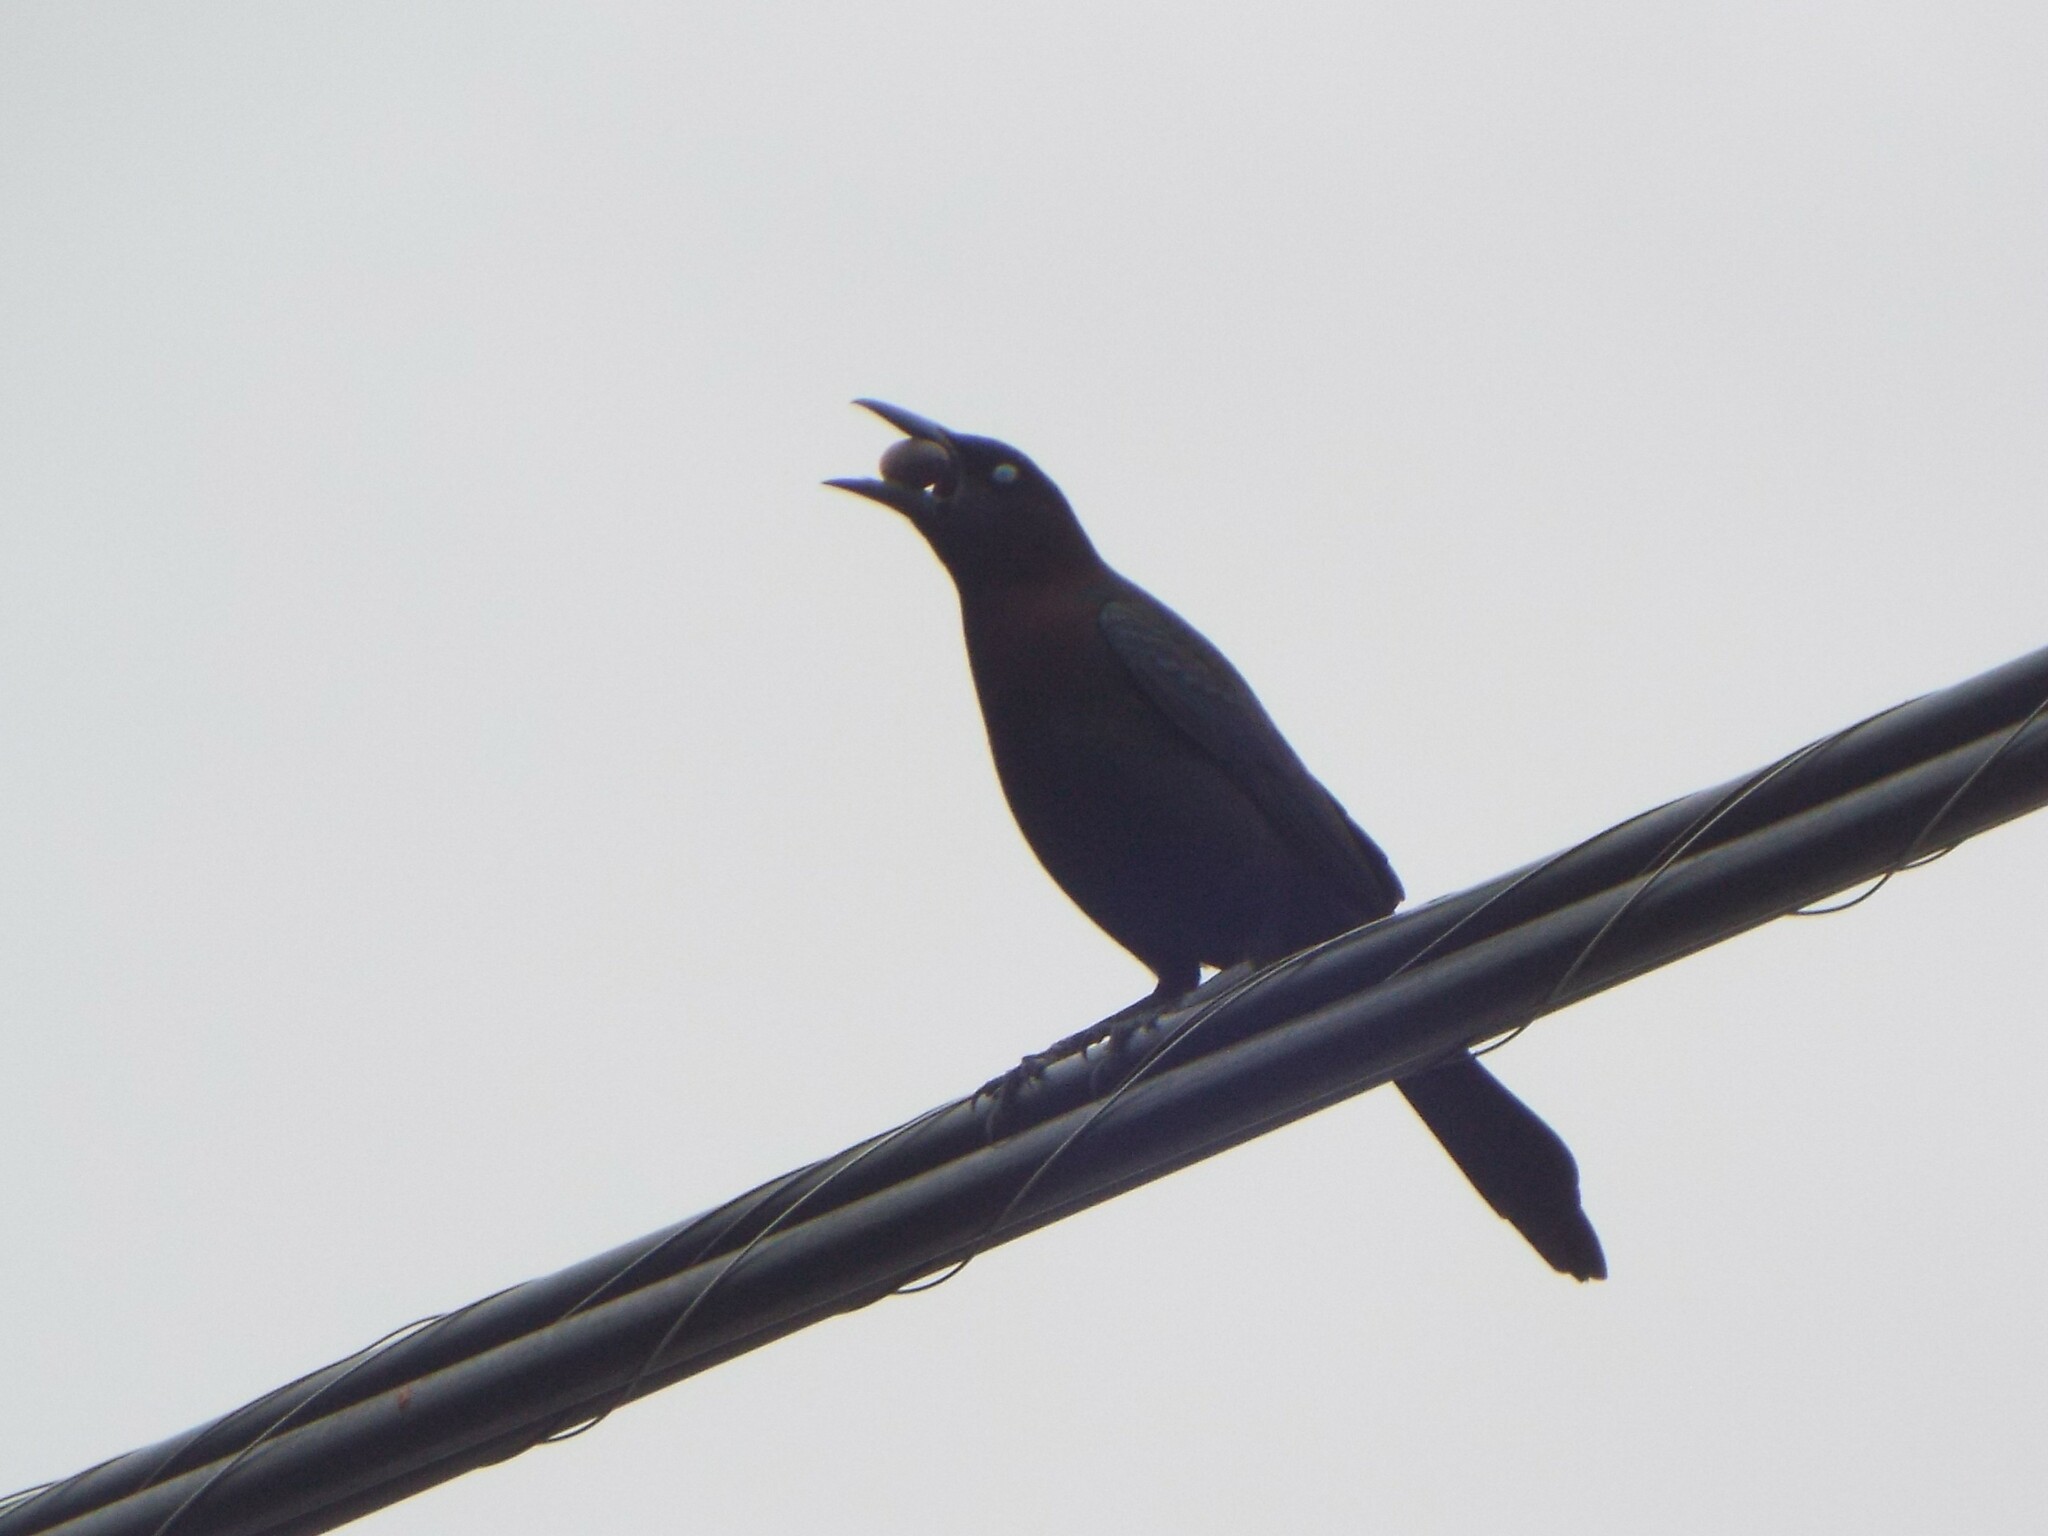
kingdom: Animalia
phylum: Chordata
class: Aves
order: Passeriformes
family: Icteridae
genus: Quiscalus
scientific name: Quiscalus quiscula
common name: Common grackle
